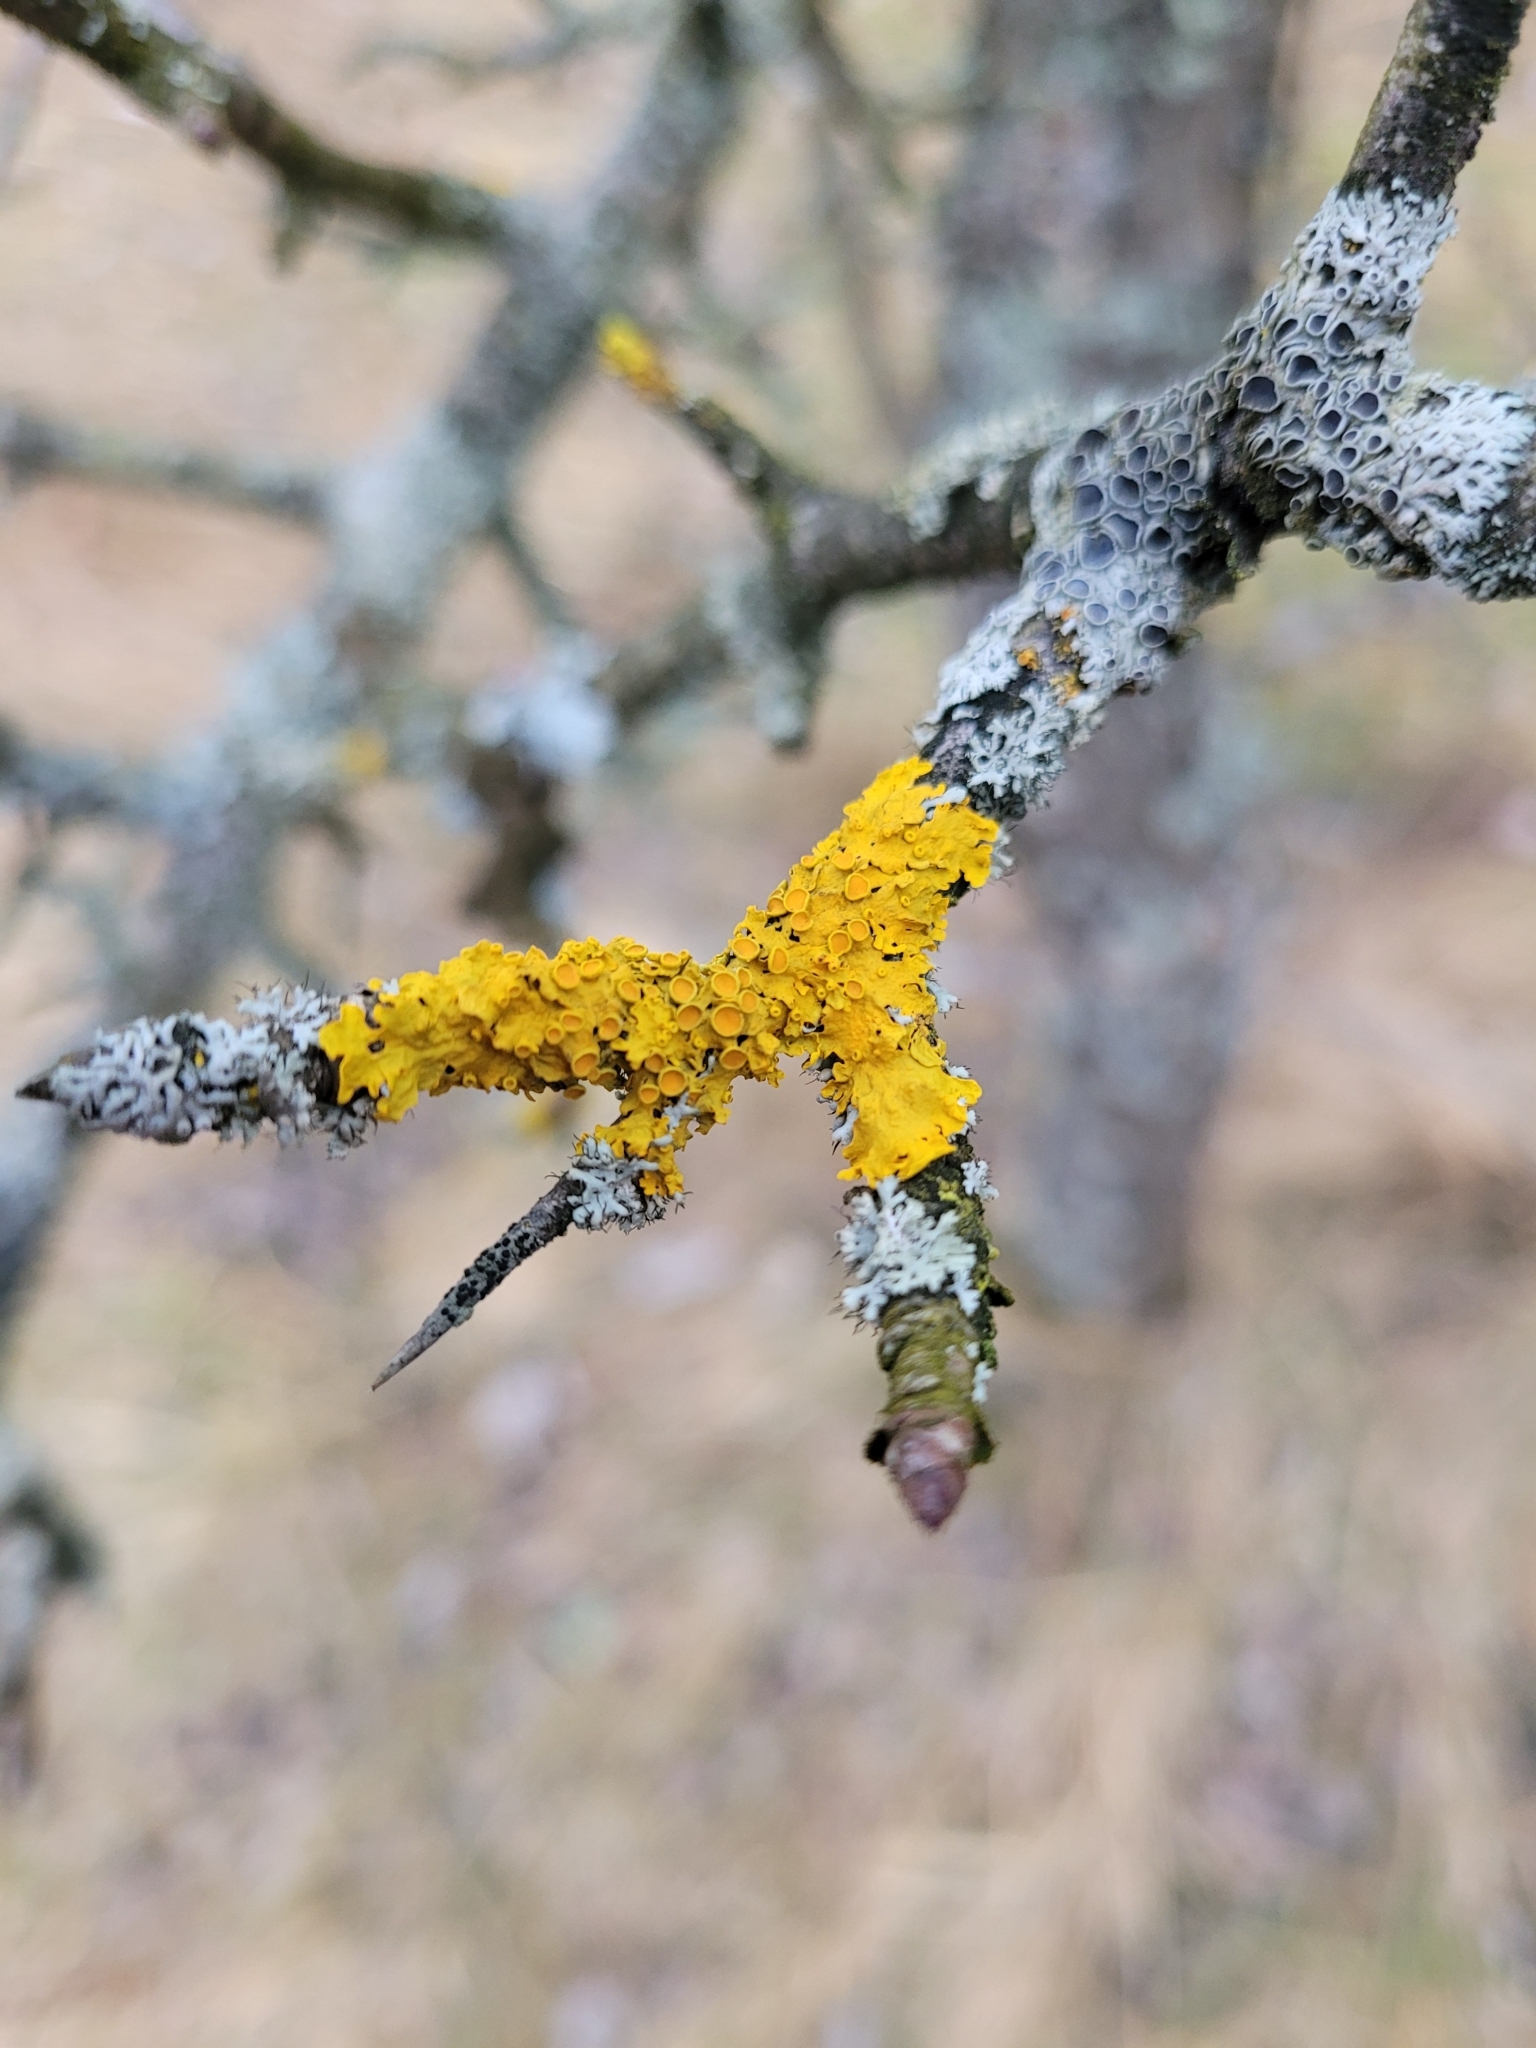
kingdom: Fungi
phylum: Ascomycota
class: Lecanoromycetes
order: Teloschistales
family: Teloschistaceae
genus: Xanthoria
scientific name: Xanthoria parietina
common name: Common orange lichen
